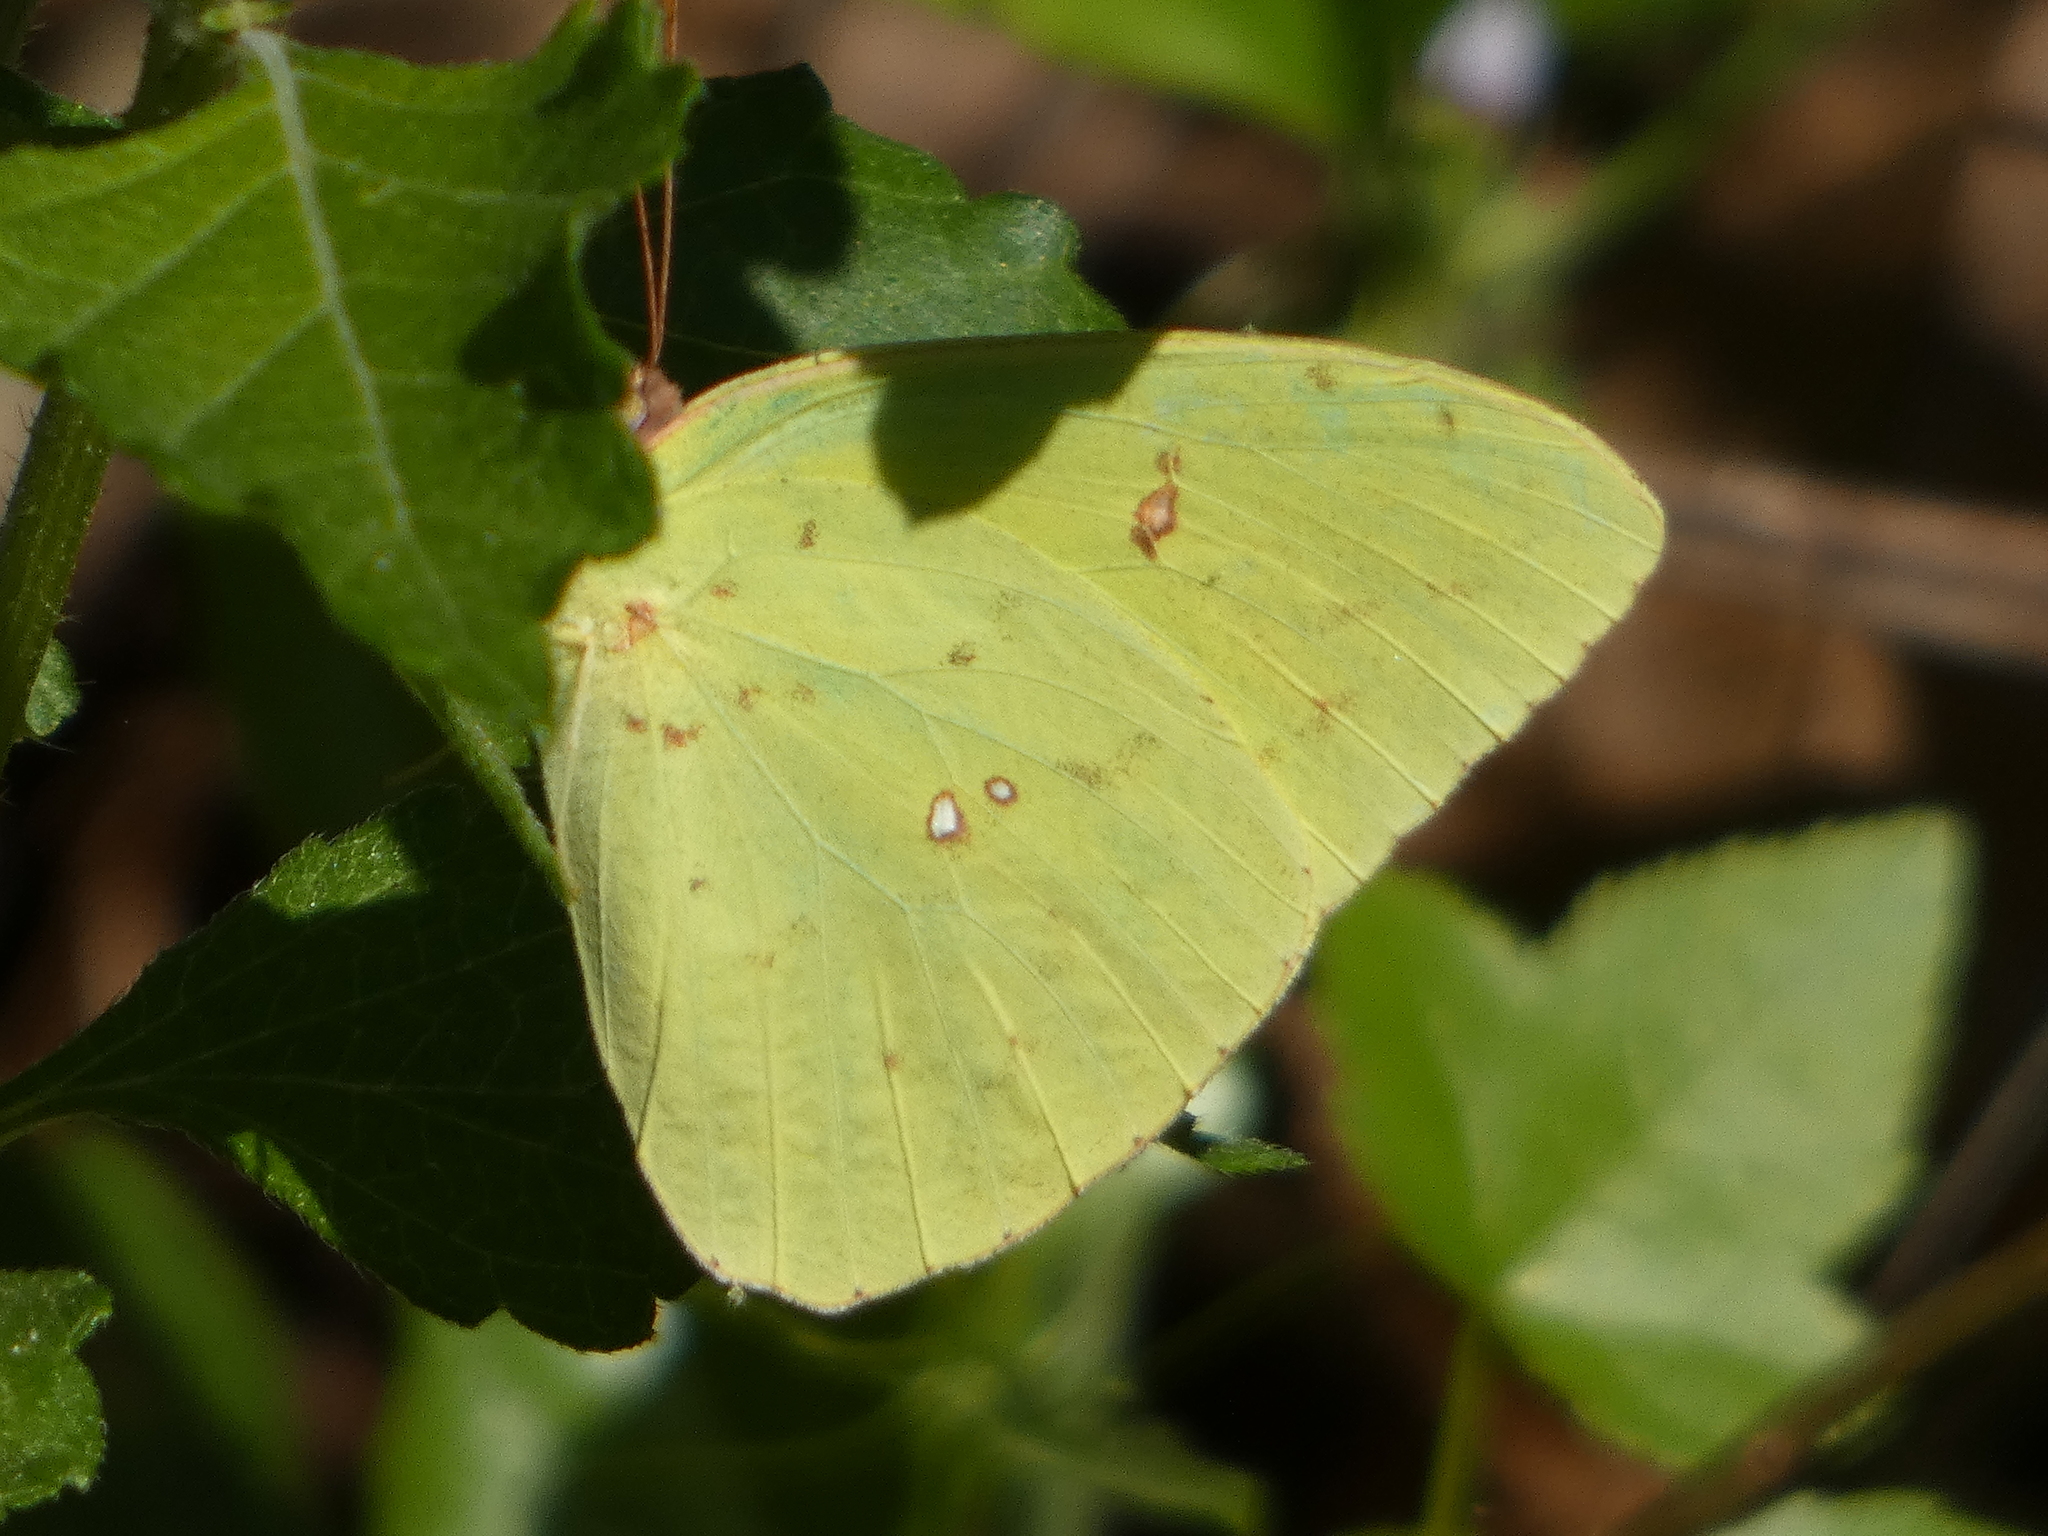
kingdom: Animalia
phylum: Arthropoda
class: Insecta
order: Lepidoptera
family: Pieridae
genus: Phoebis
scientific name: Phoebis sennae
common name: Cloudless sulphur
